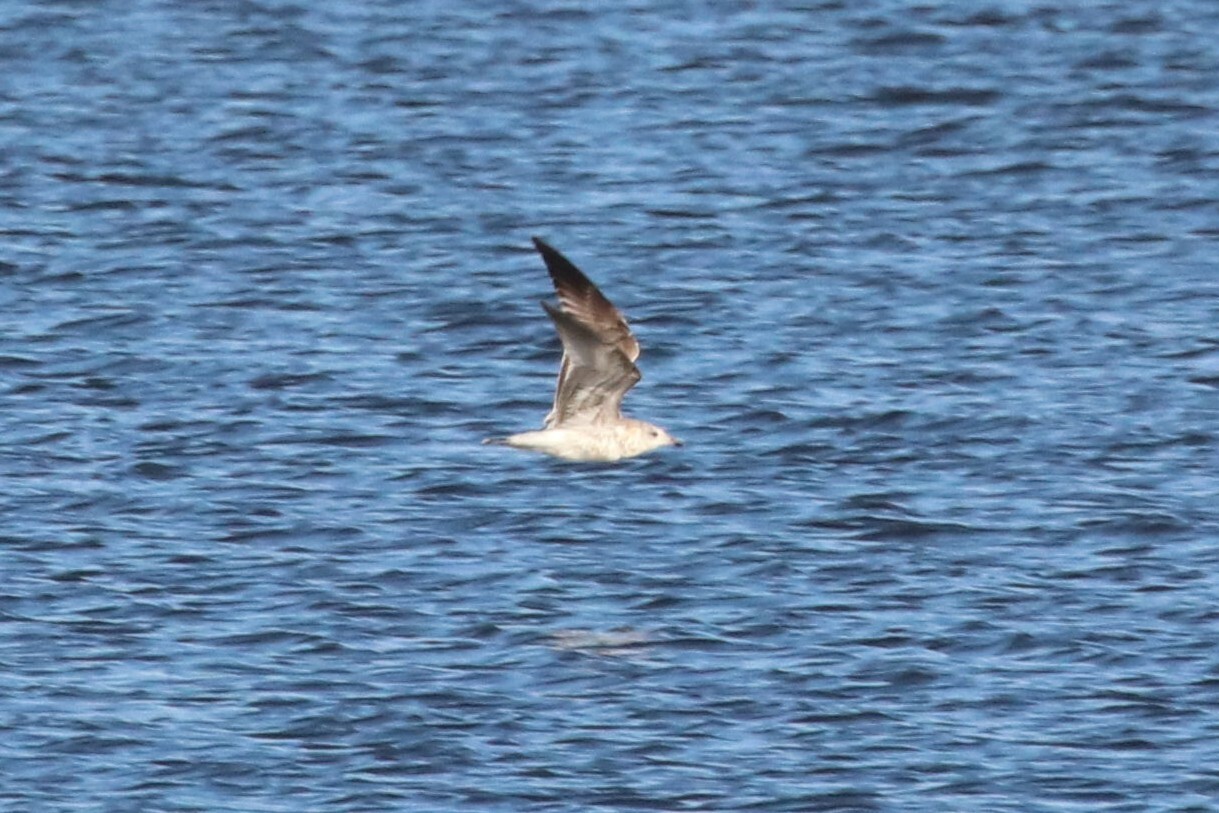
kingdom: Animalia
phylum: Chordata
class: Aves
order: Charadriiformes
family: Laridae
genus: Larus
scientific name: Larus canus
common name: Mew gull
